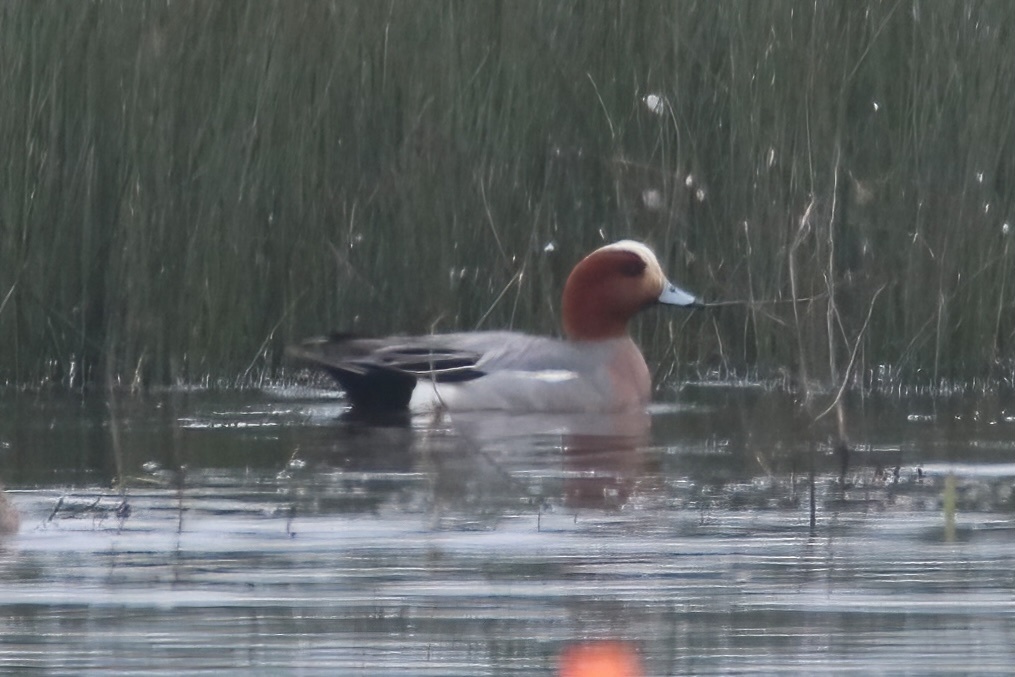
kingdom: Animalia
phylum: Chordata
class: Aves
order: Anseriformes
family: Anatidae
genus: Mareca
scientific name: Mareca penelope
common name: Eurasian wigeon
